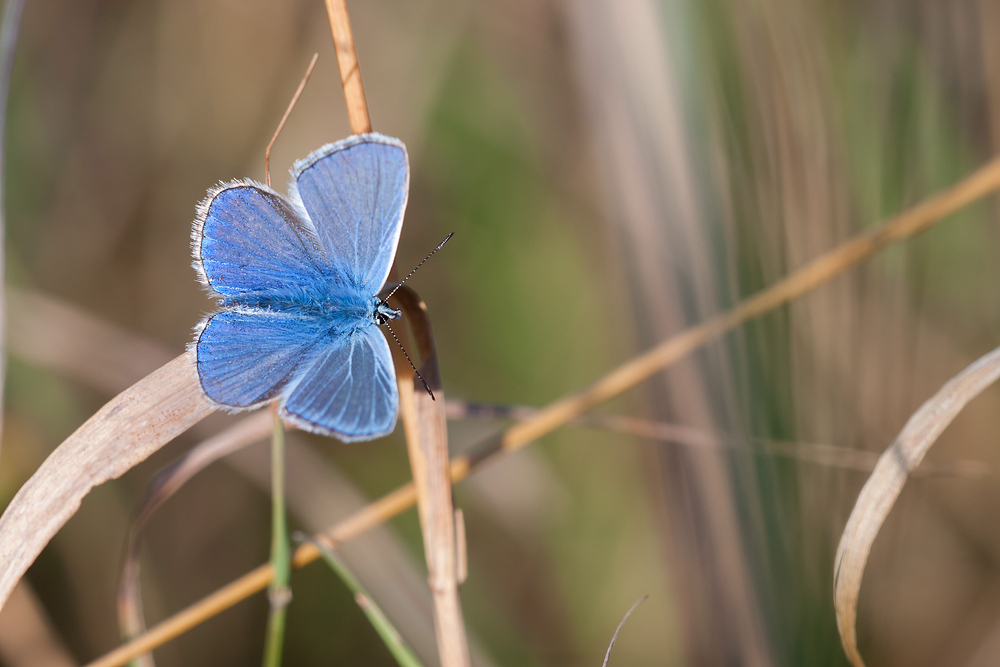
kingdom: Animalia
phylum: Arthropoda
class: Insecta
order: Lepidoptera
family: Lycaenidae
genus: Polyommatus
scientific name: Polyommatus icarus
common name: Common blue
